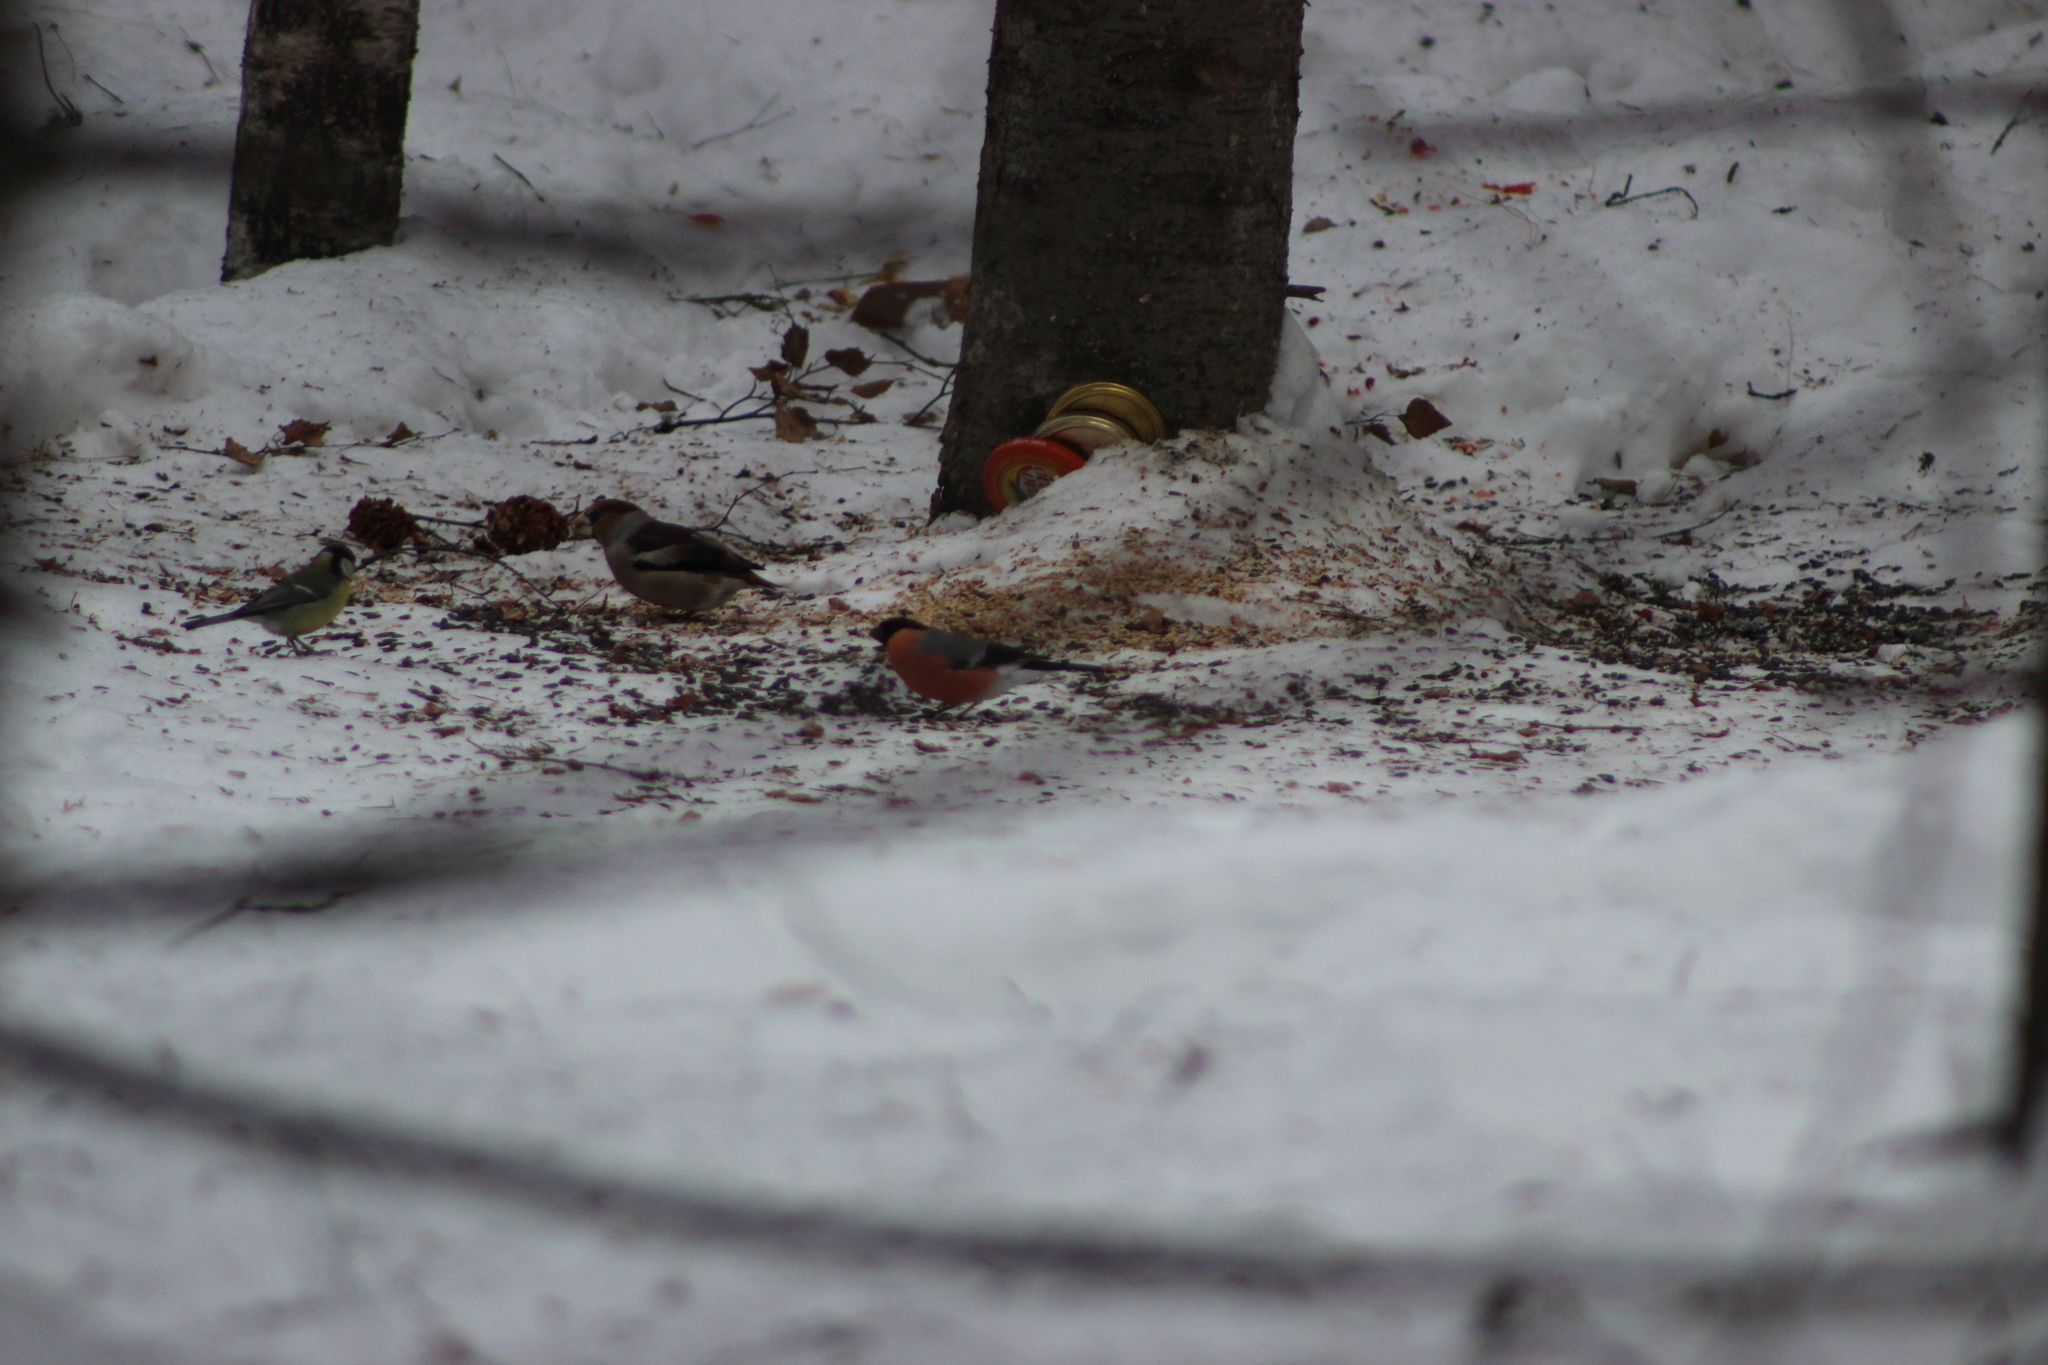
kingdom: Animalia
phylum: Chordata
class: Aves
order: Passeriformes
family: Fringillidae
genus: Pyrrhula
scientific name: Pyrrhula pyrrhula
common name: Eurasian bullfinch
